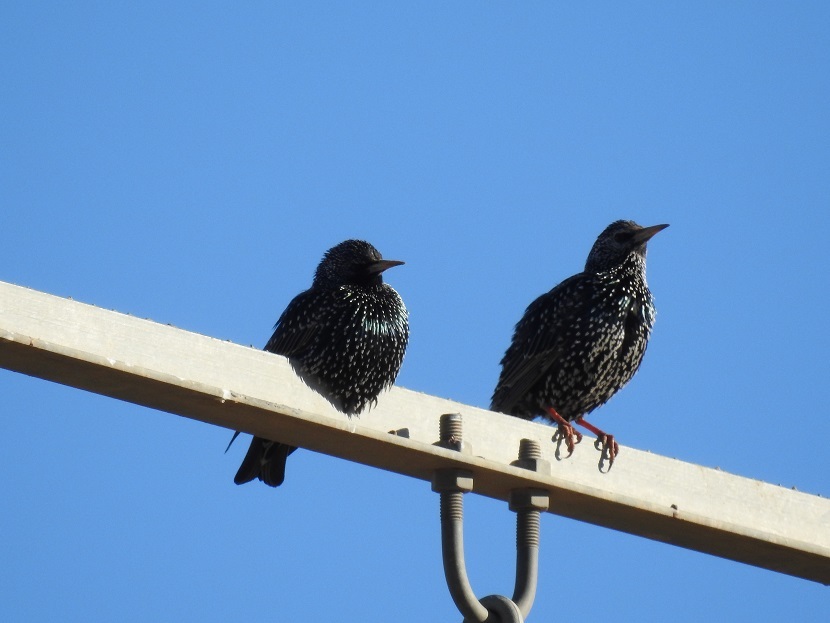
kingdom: Animalia
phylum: Chordata
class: Aves
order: Passeriformes
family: Sturnidae
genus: Sturnus
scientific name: Sturnus vulgaris
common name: Common starling
